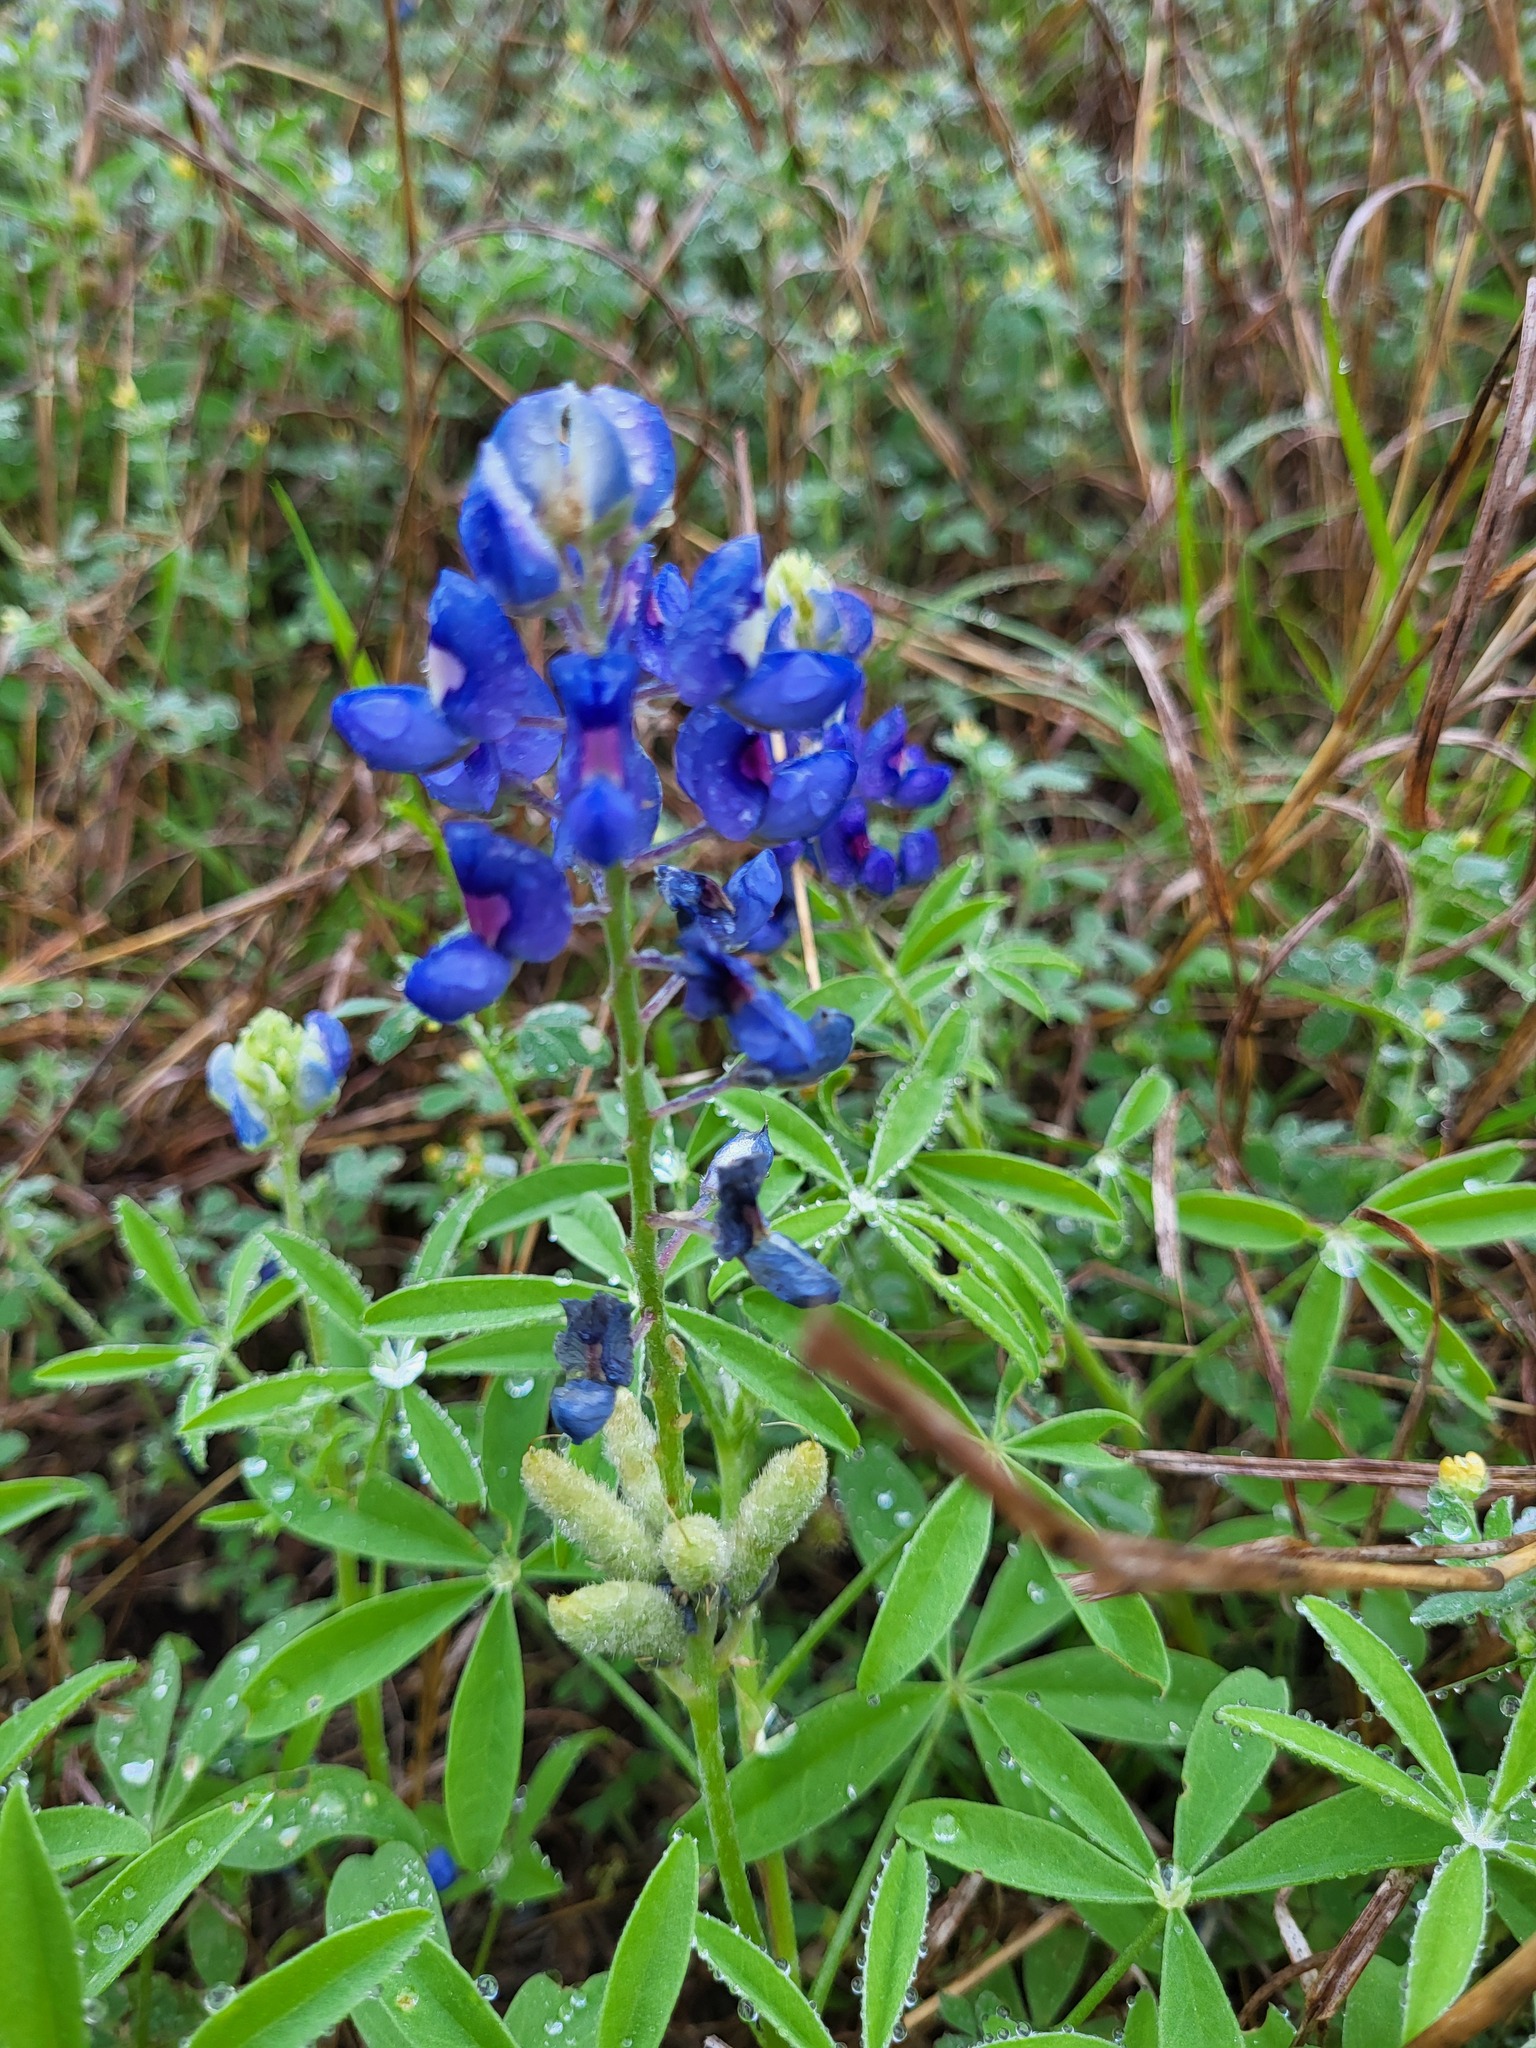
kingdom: Plantae
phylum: Tracheophyta
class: Magnoliopsida
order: Fabales
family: Fabaceae
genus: Lupinus
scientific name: Lupinus texensis
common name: Texas bluebonnet
